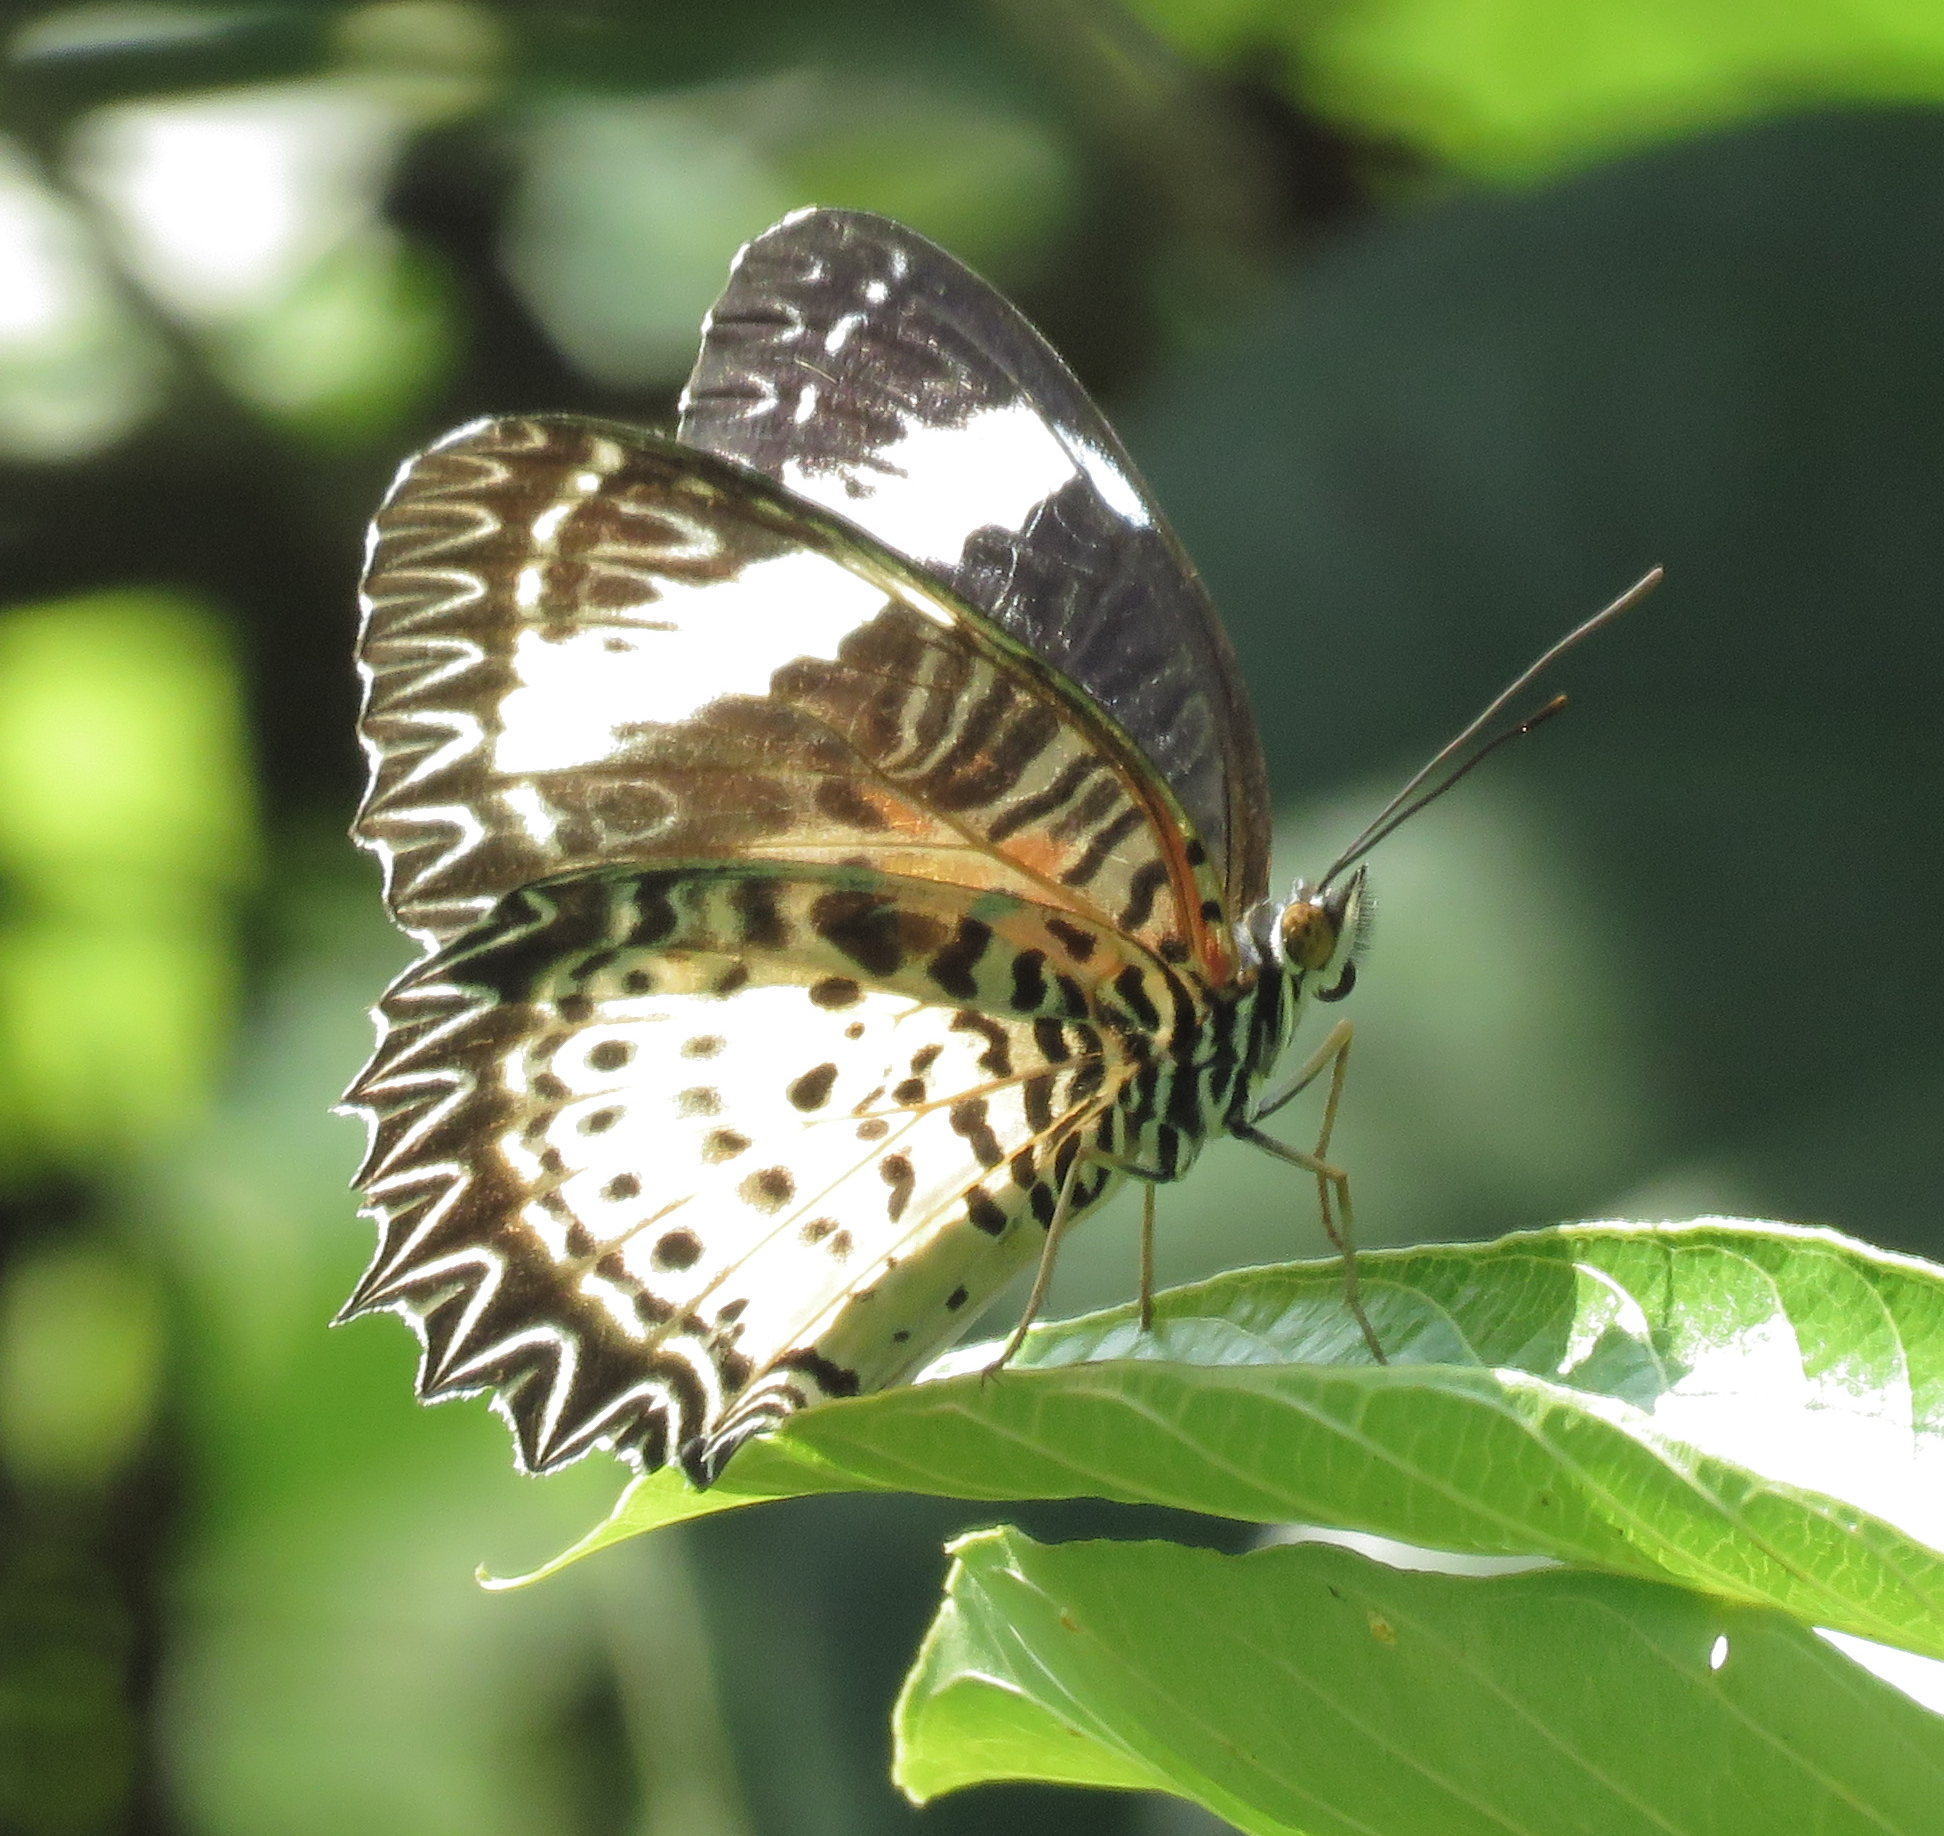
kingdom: Animalia
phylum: Arthropoda
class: Insecta
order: Lepidoptera
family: Nymphalidae
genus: Cethosia
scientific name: Cethosia cyane
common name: Leopard lacewing butterfly
